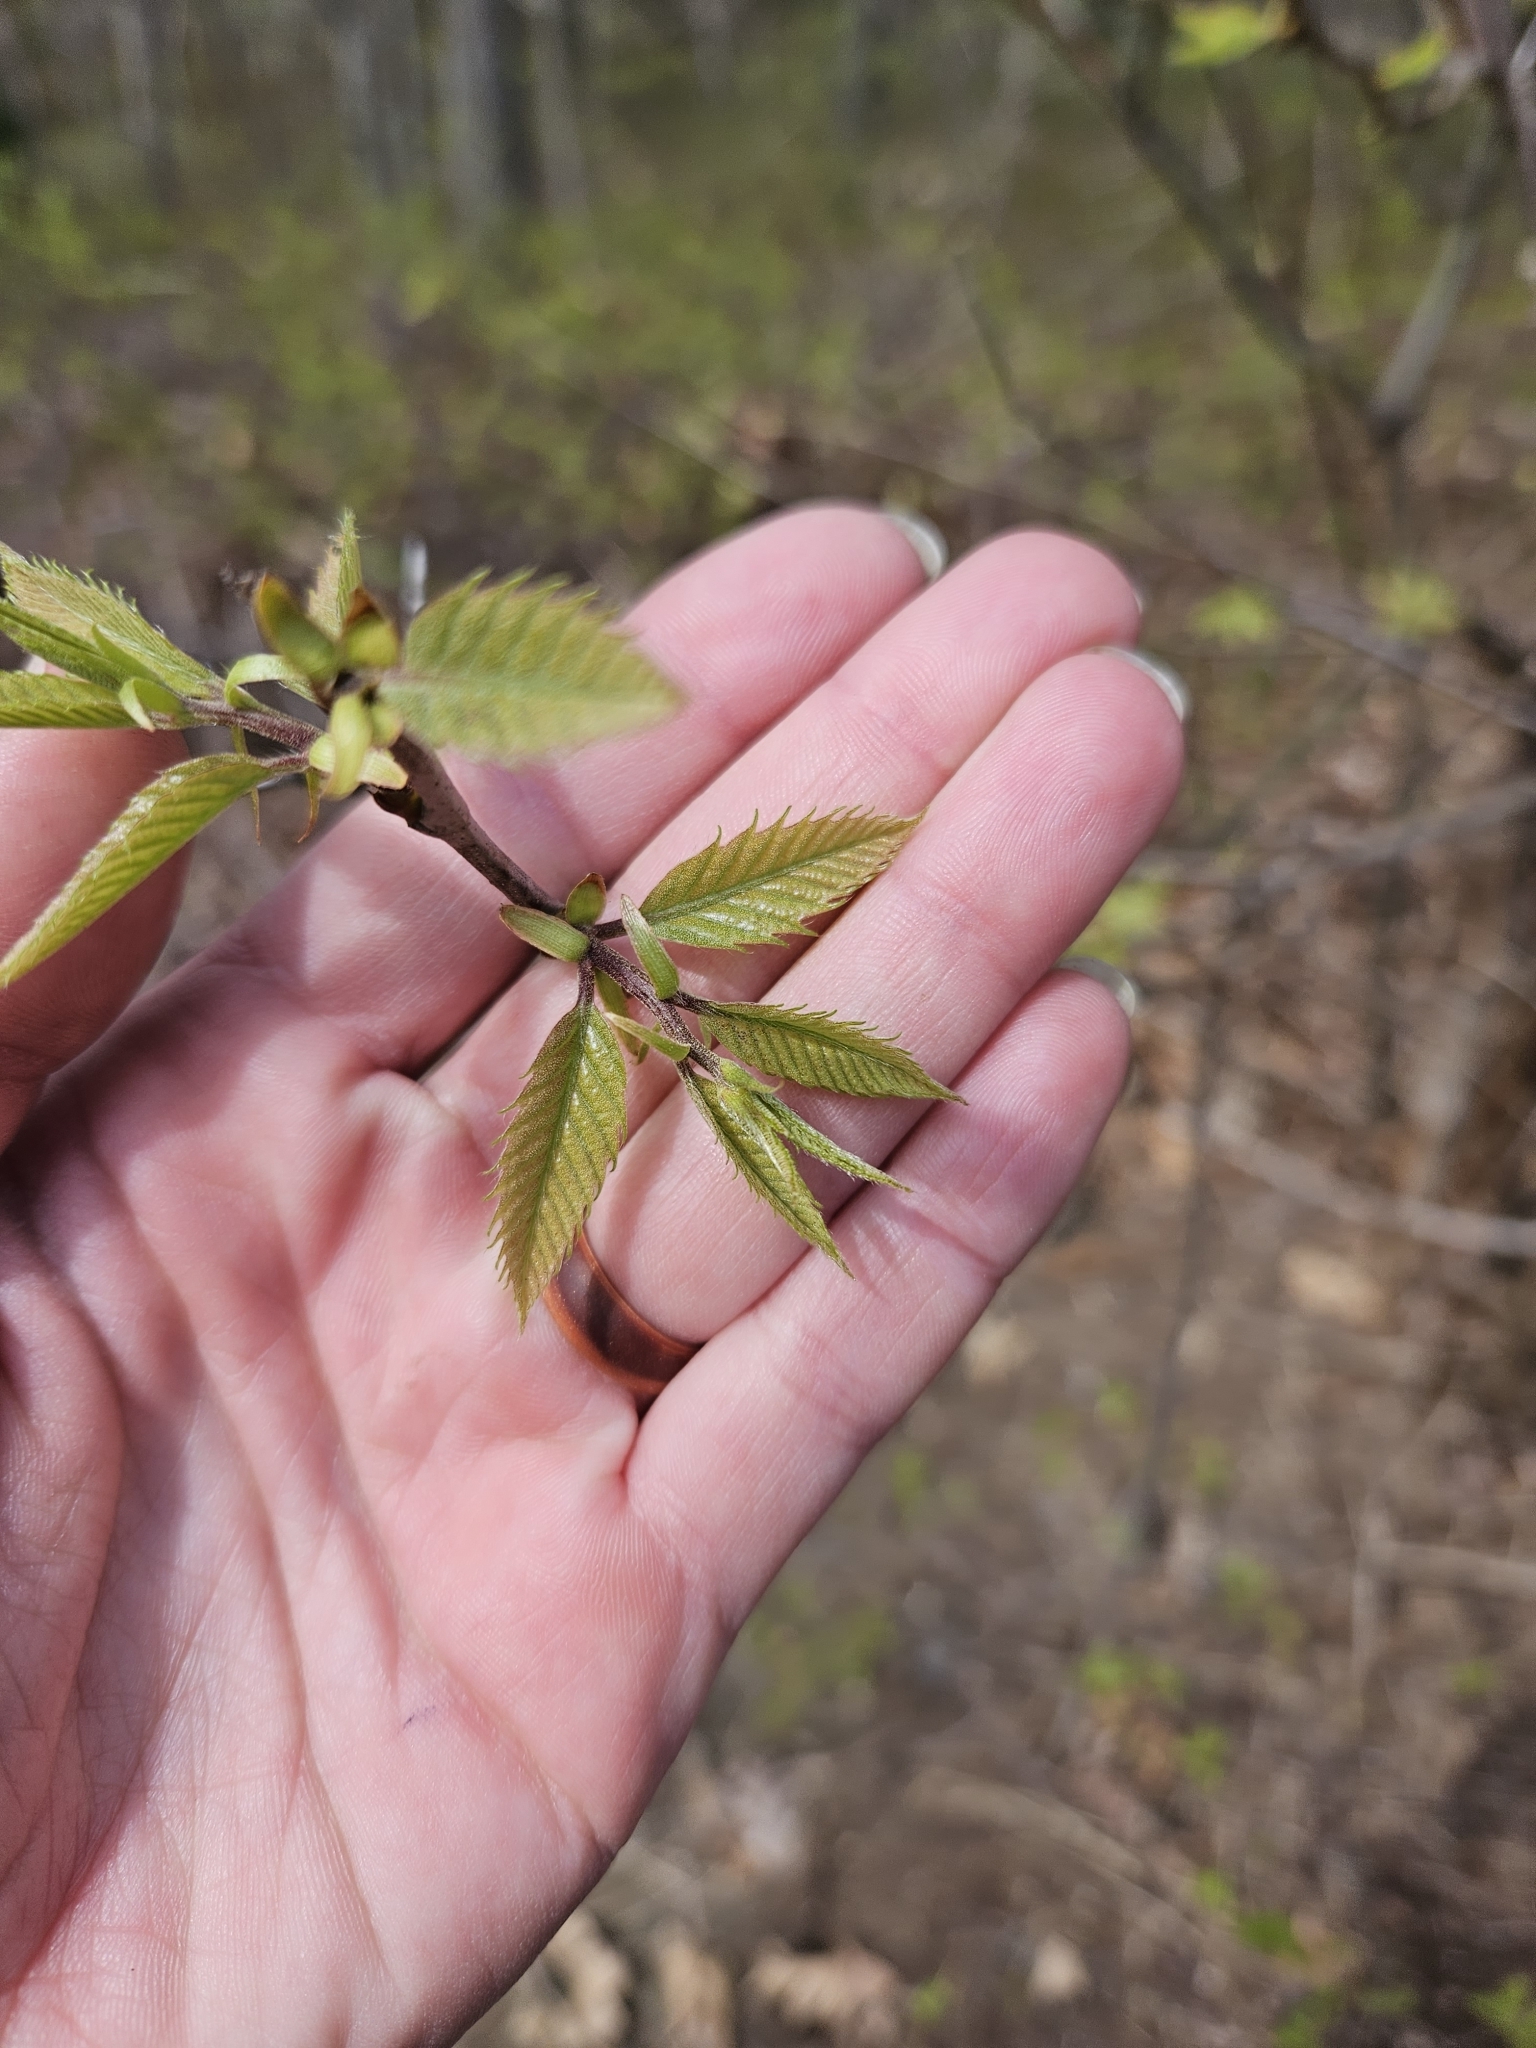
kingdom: Plantae
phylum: Tracheophyta
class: Magnoliopsida
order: Fagales
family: Fagaceae
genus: Castanea
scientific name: Castanea dentata
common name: American chestnut
